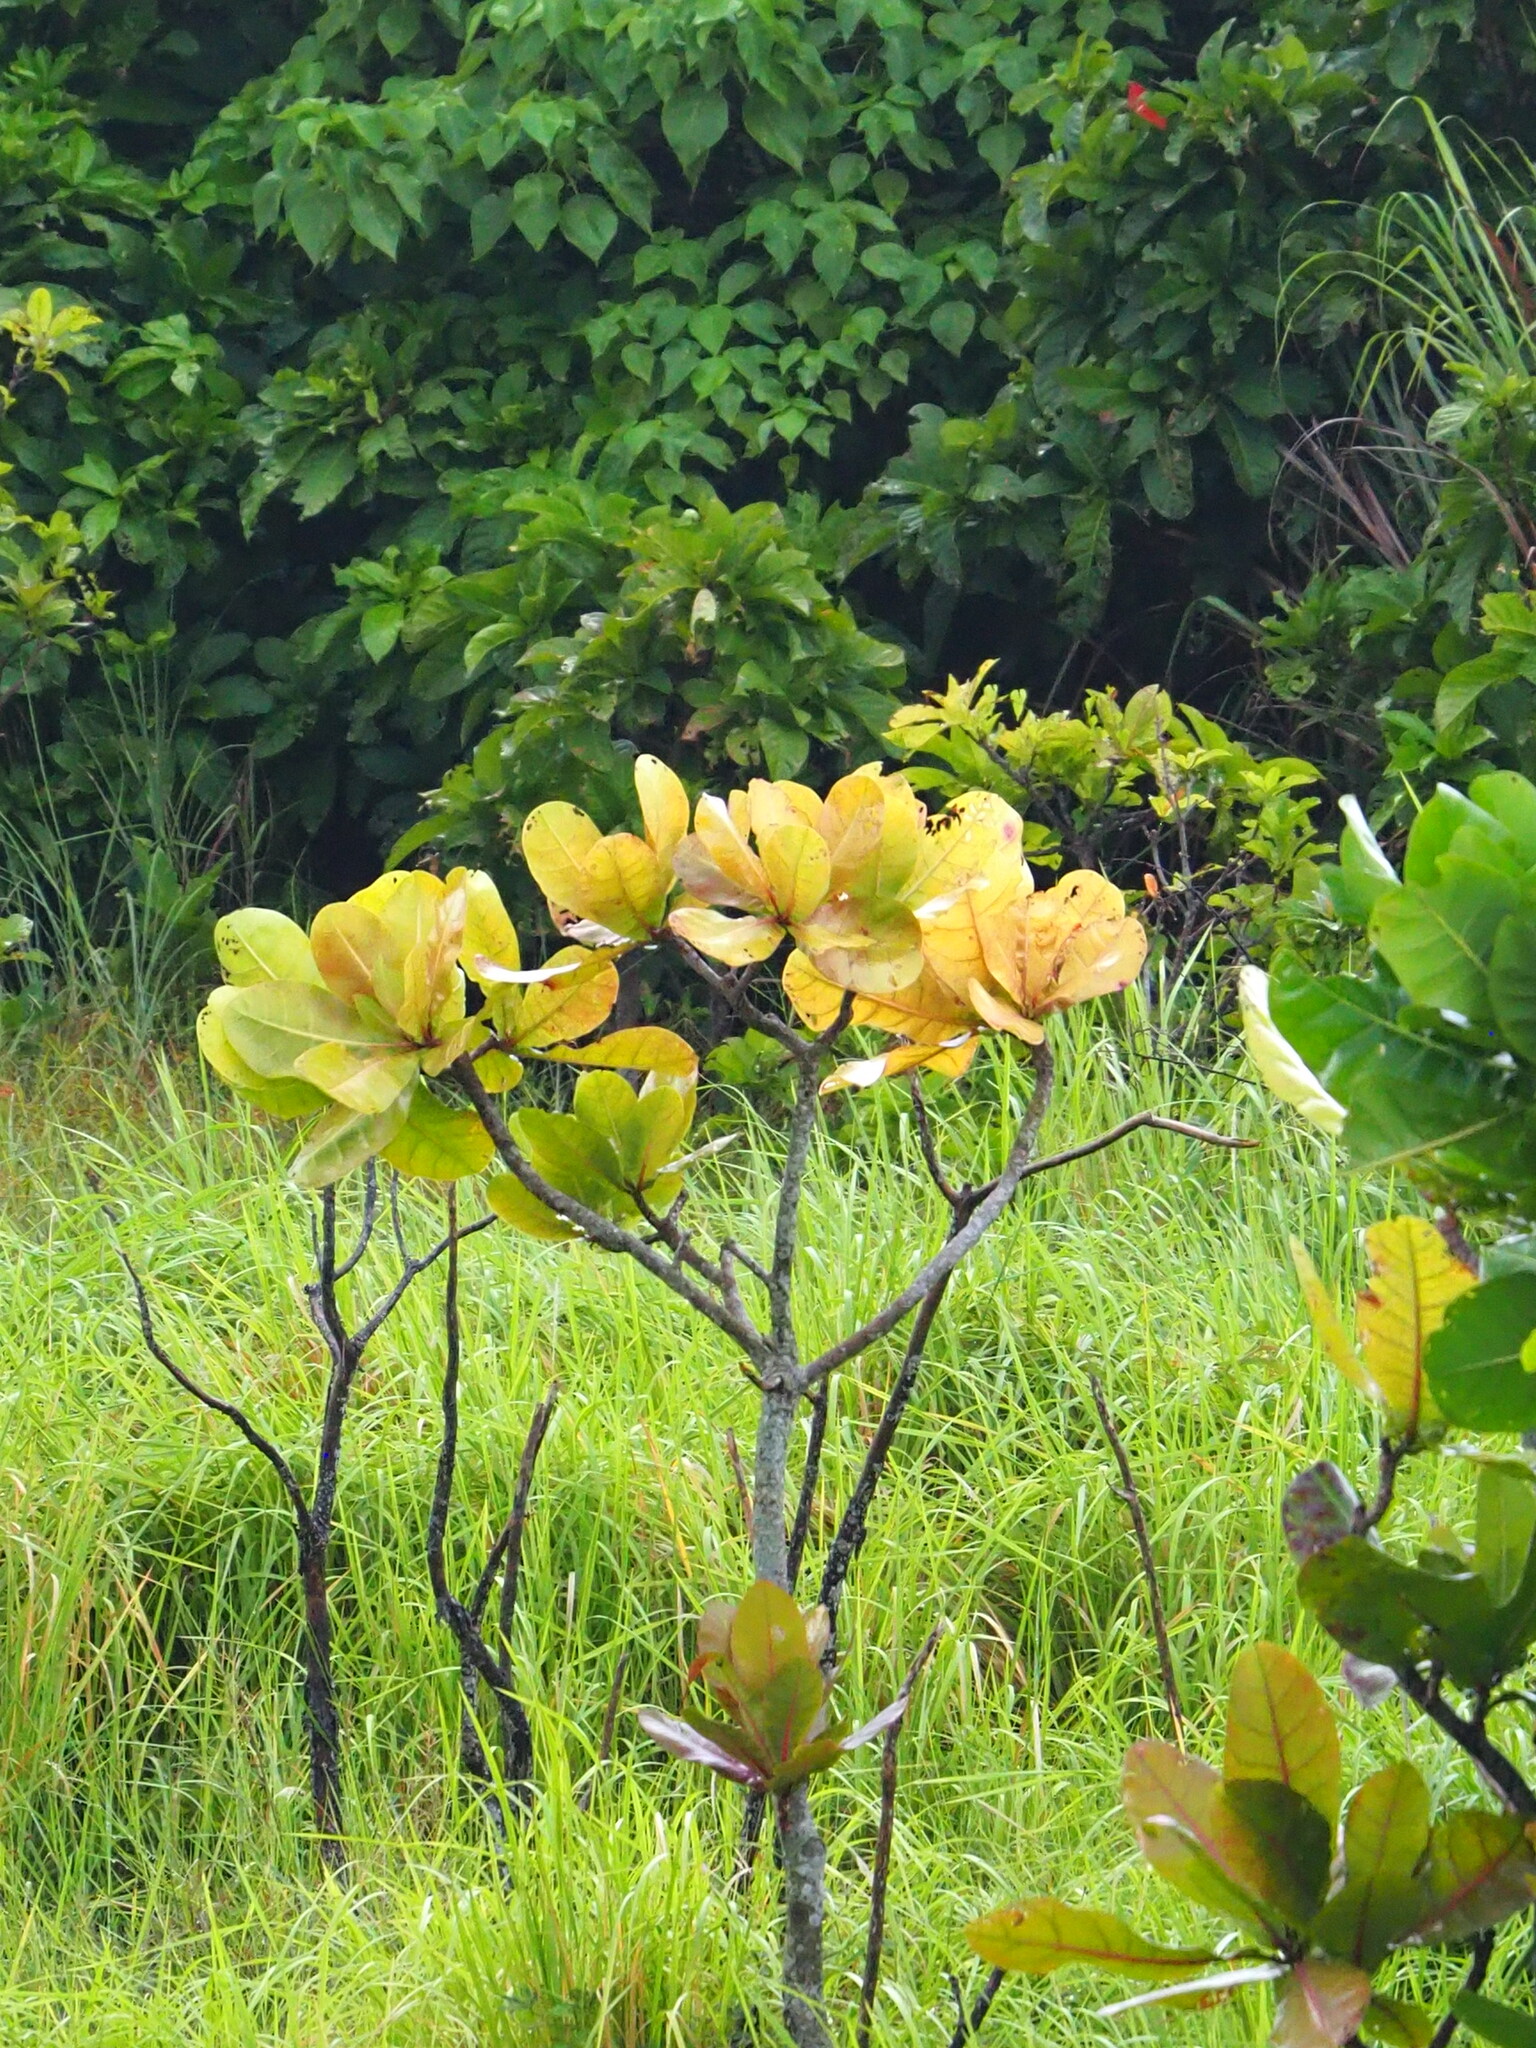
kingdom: Plantae
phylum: Tracheophyta
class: Magnoliopsida
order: Myrtales
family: Combretaceae
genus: Terminalia
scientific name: Terminalia catappa
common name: Tropical almond
